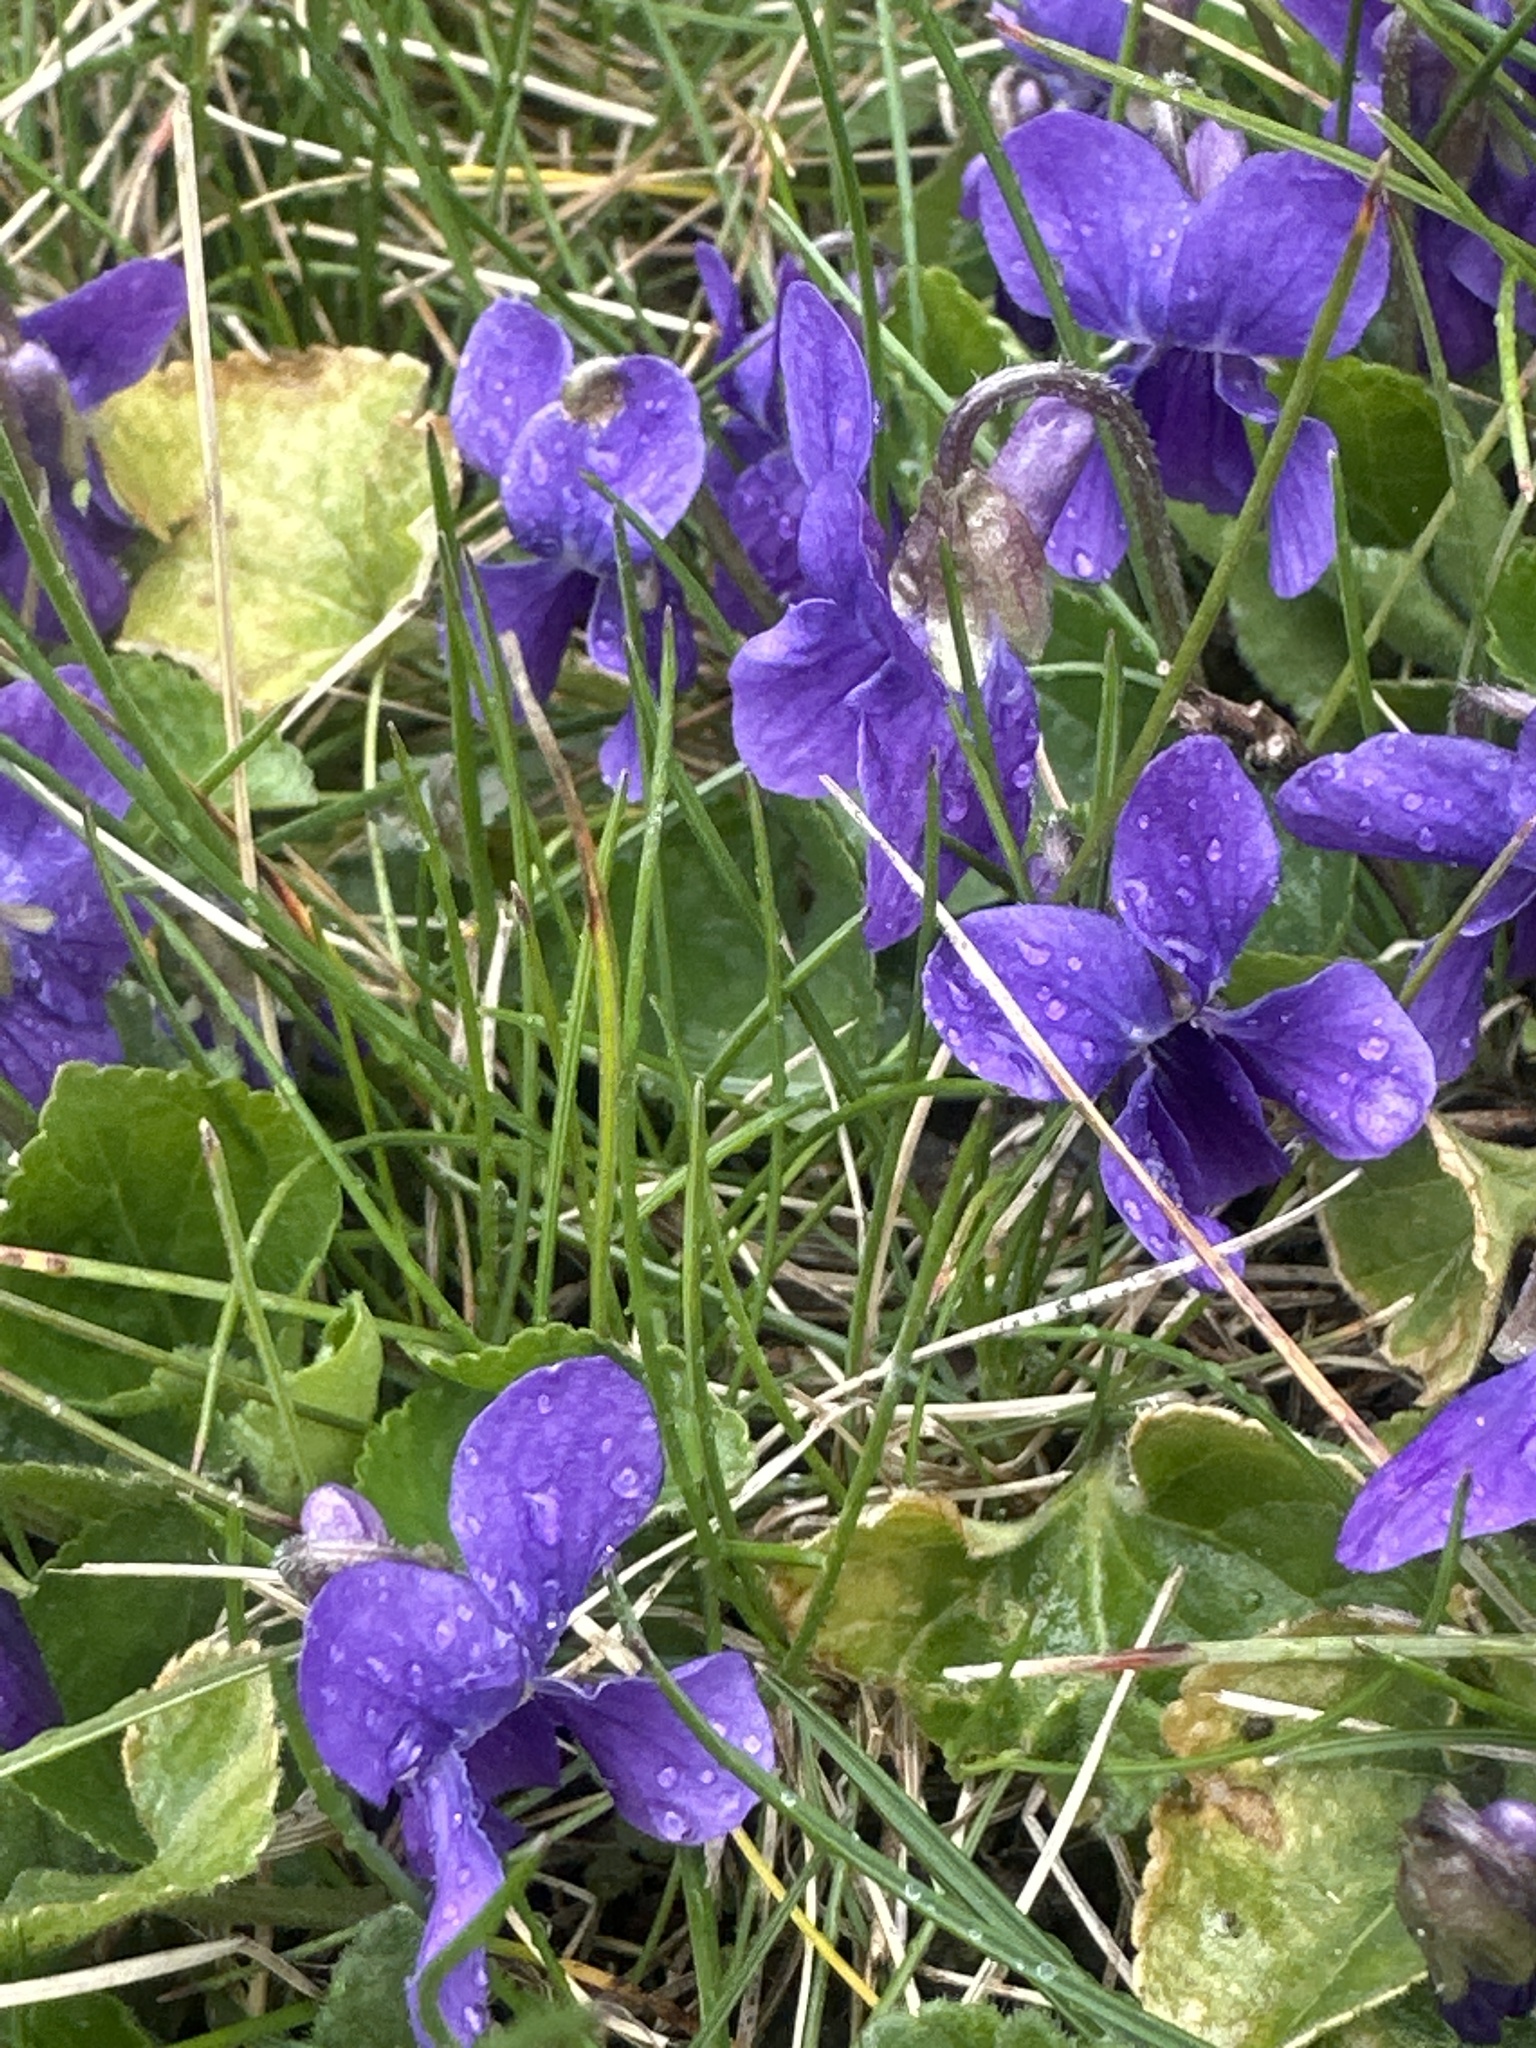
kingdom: Plantae
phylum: Tracheophyta
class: Magnoliopsida
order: Malpighiales
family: Violaceae
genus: Viola
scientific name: Viola odorata
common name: Sweet violet
